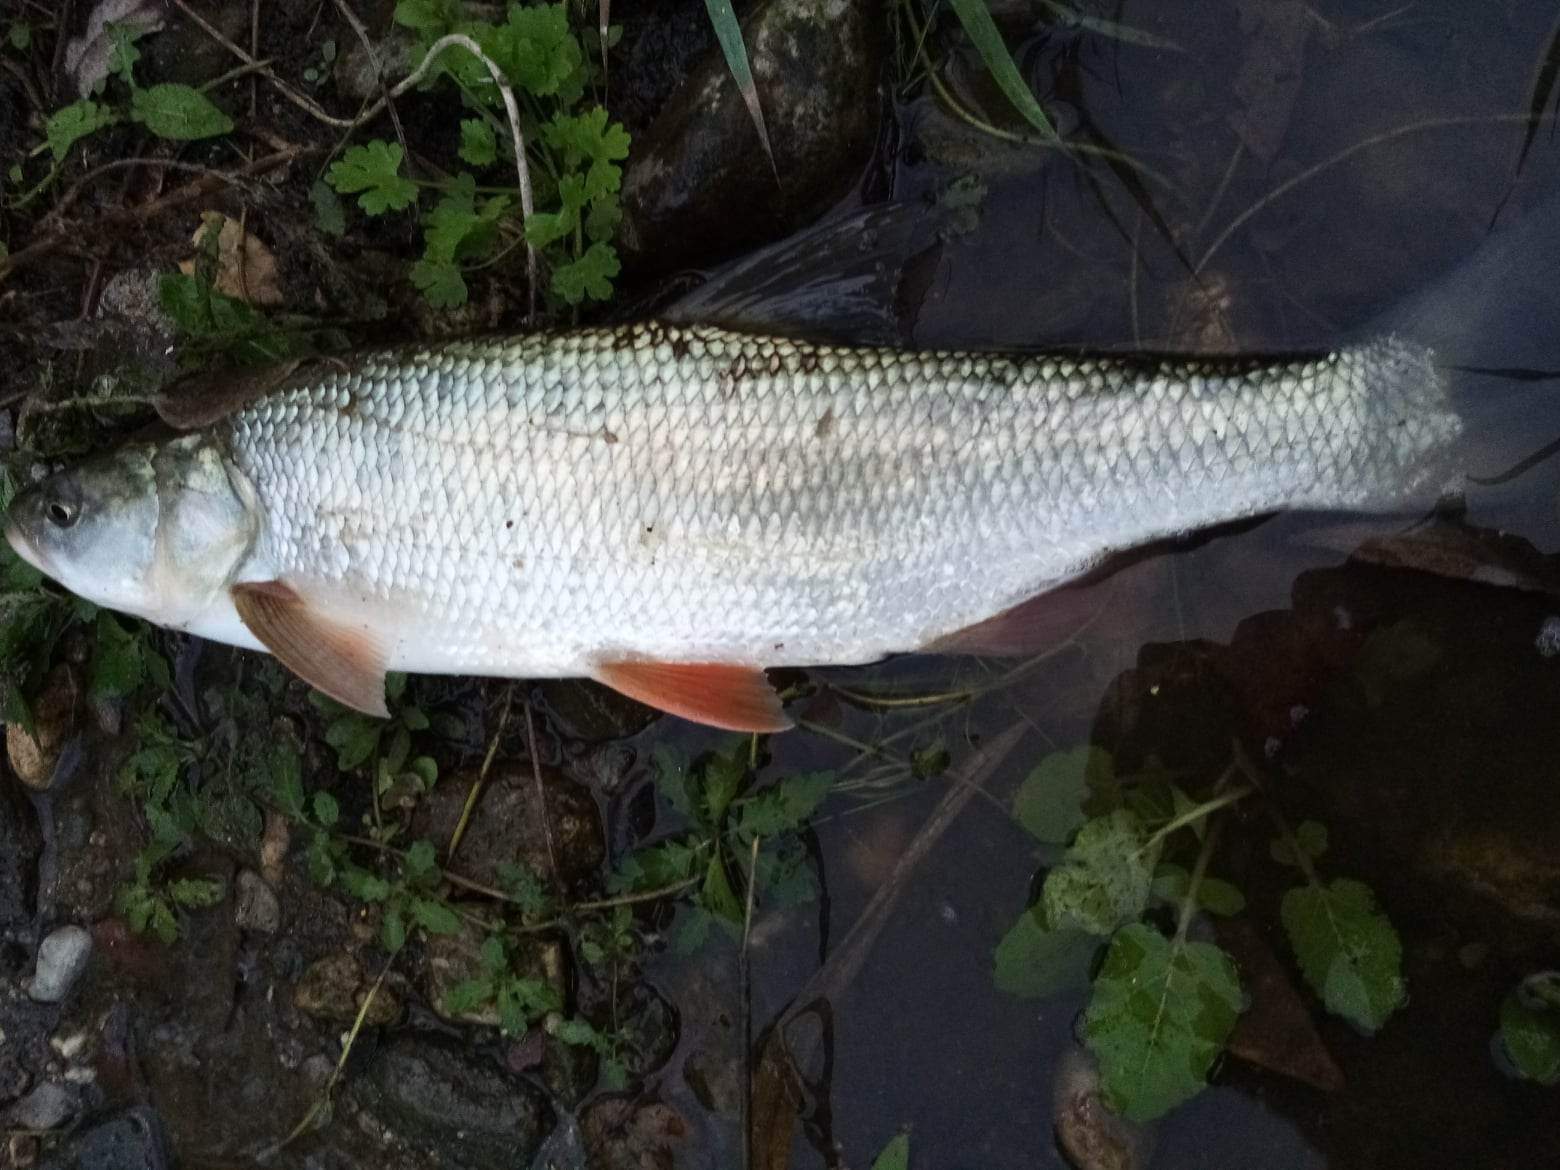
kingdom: Animalia
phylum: Chordata
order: Cypriniformes
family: Cyprinidae
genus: Leuciscus
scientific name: Leuciscus aspius
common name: Asp
